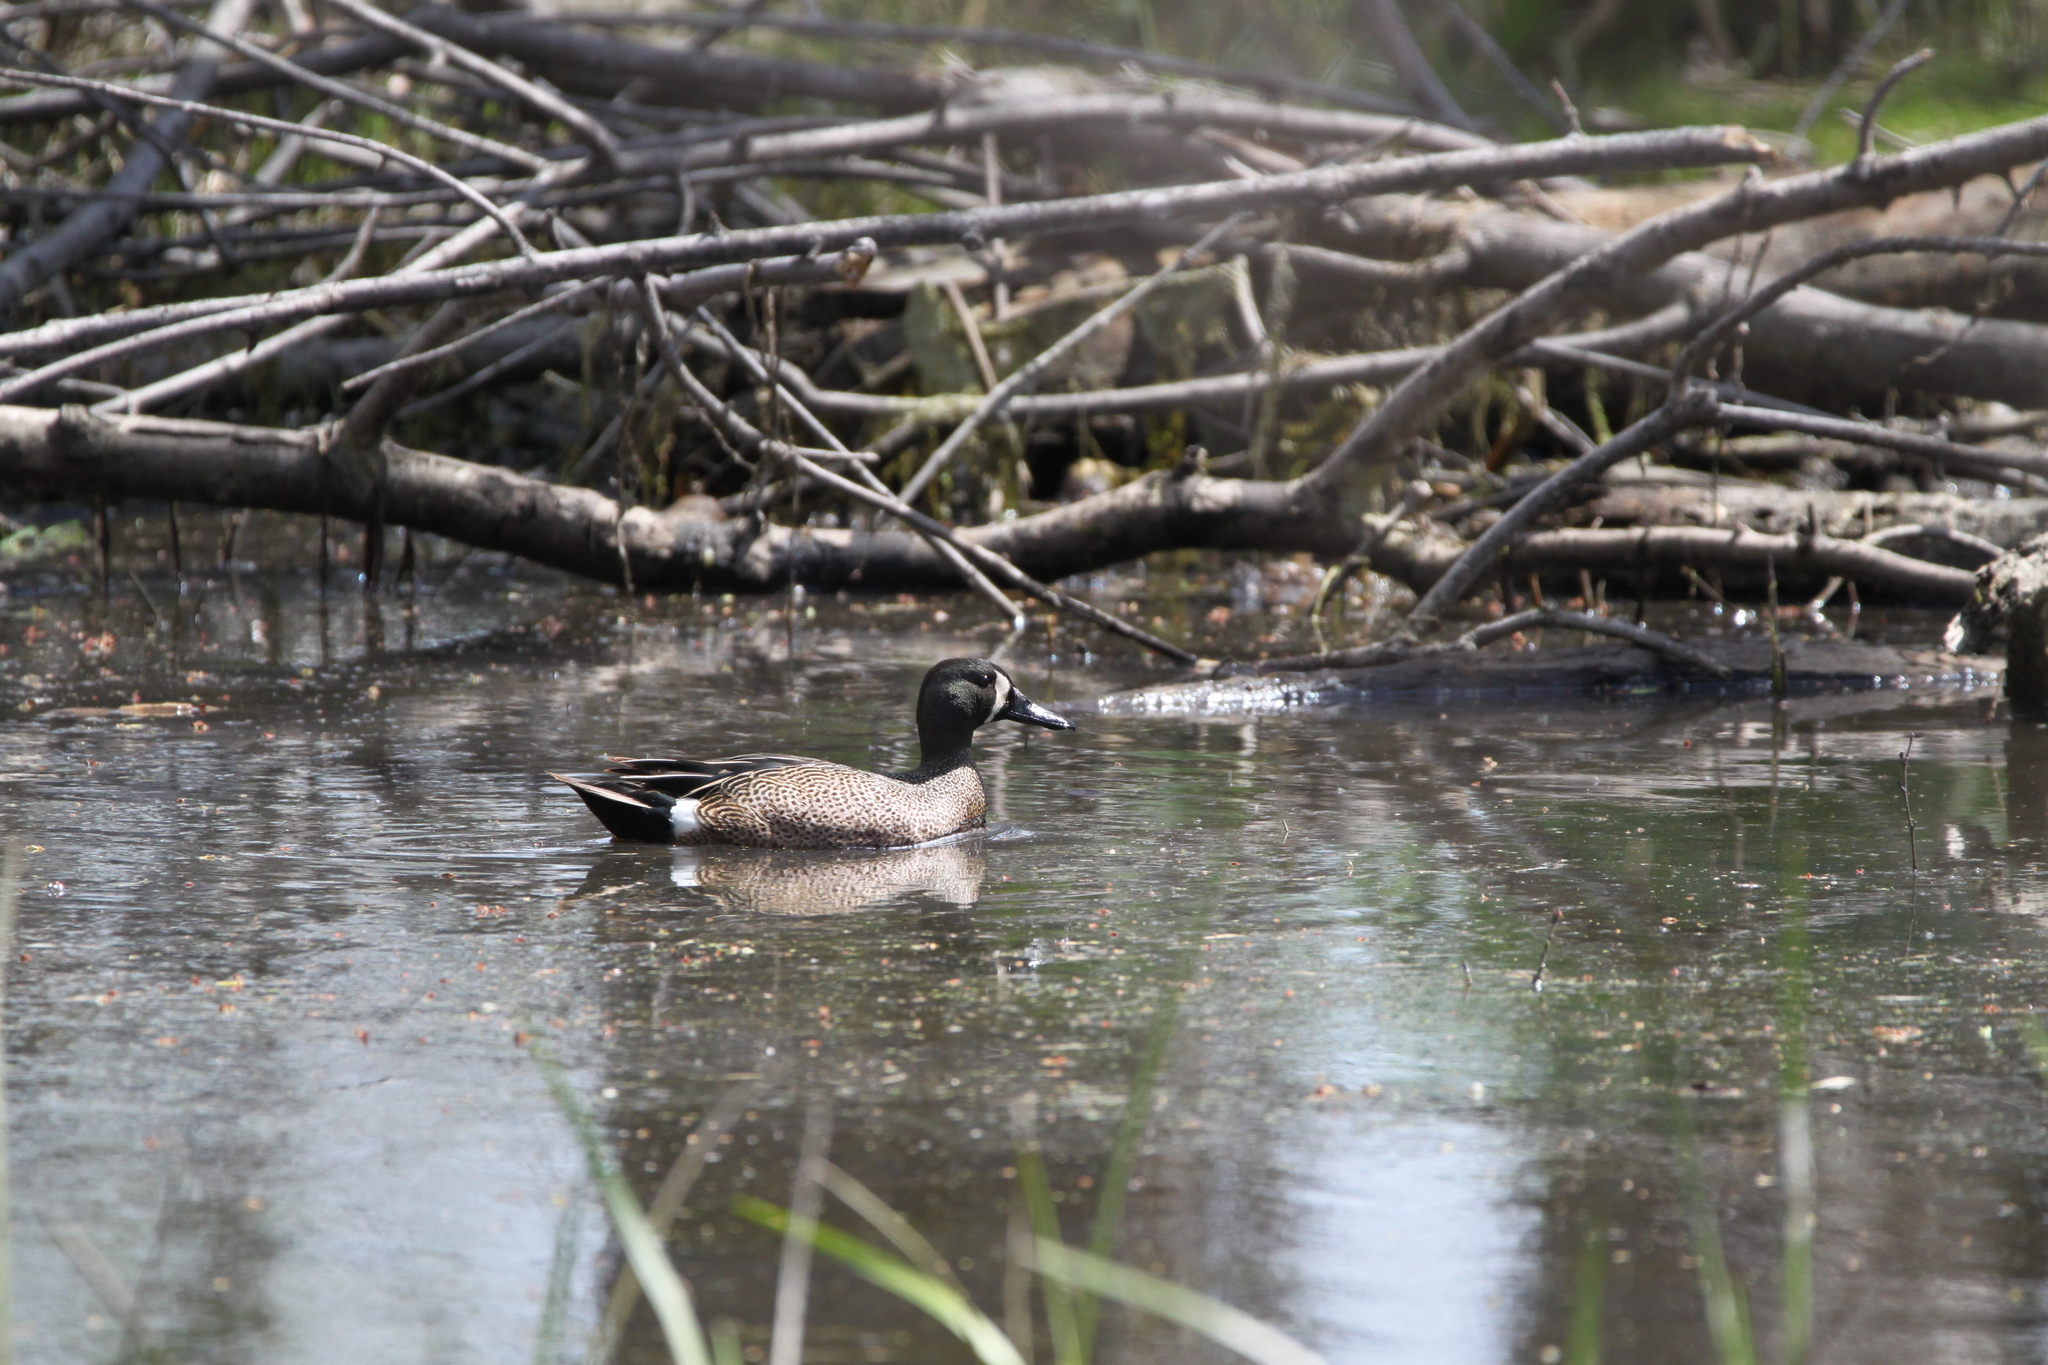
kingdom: Animalia
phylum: Chordata
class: Aves
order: Anseriformes
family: Anatidae
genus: Spatula
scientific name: Spatula discors
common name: Blue-winged teal
